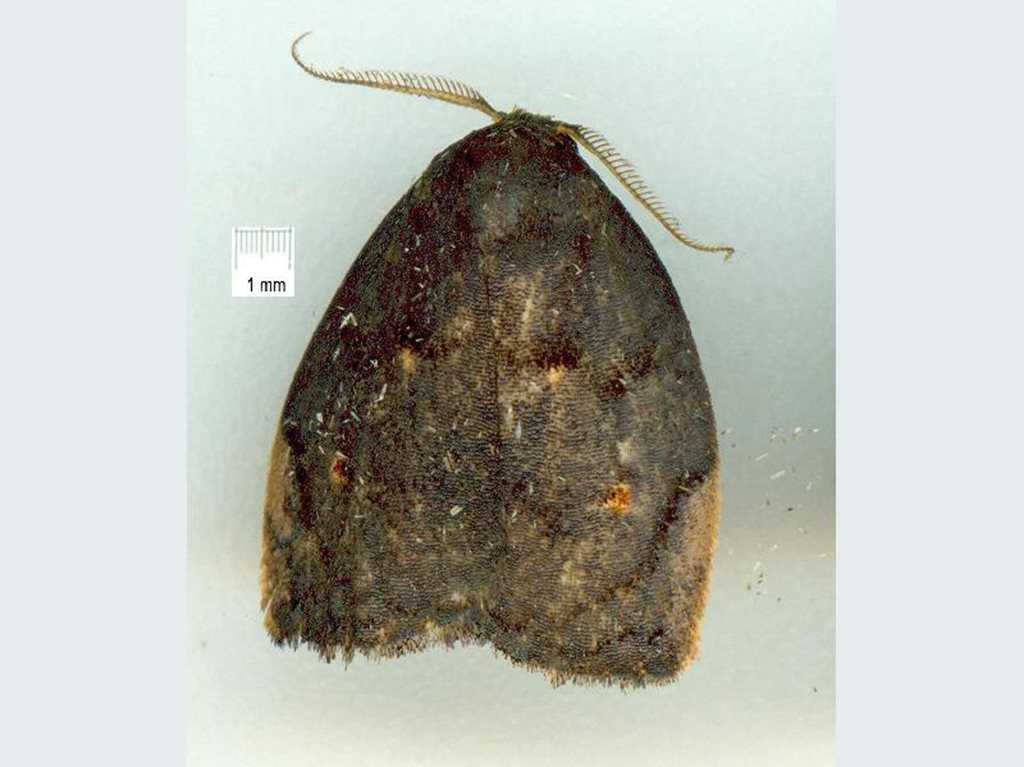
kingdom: Animalia
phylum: Arthropoda
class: Insecta
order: Lepidoptera
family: Erebidae
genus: Hemonia
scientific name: Hemonia micrommata
